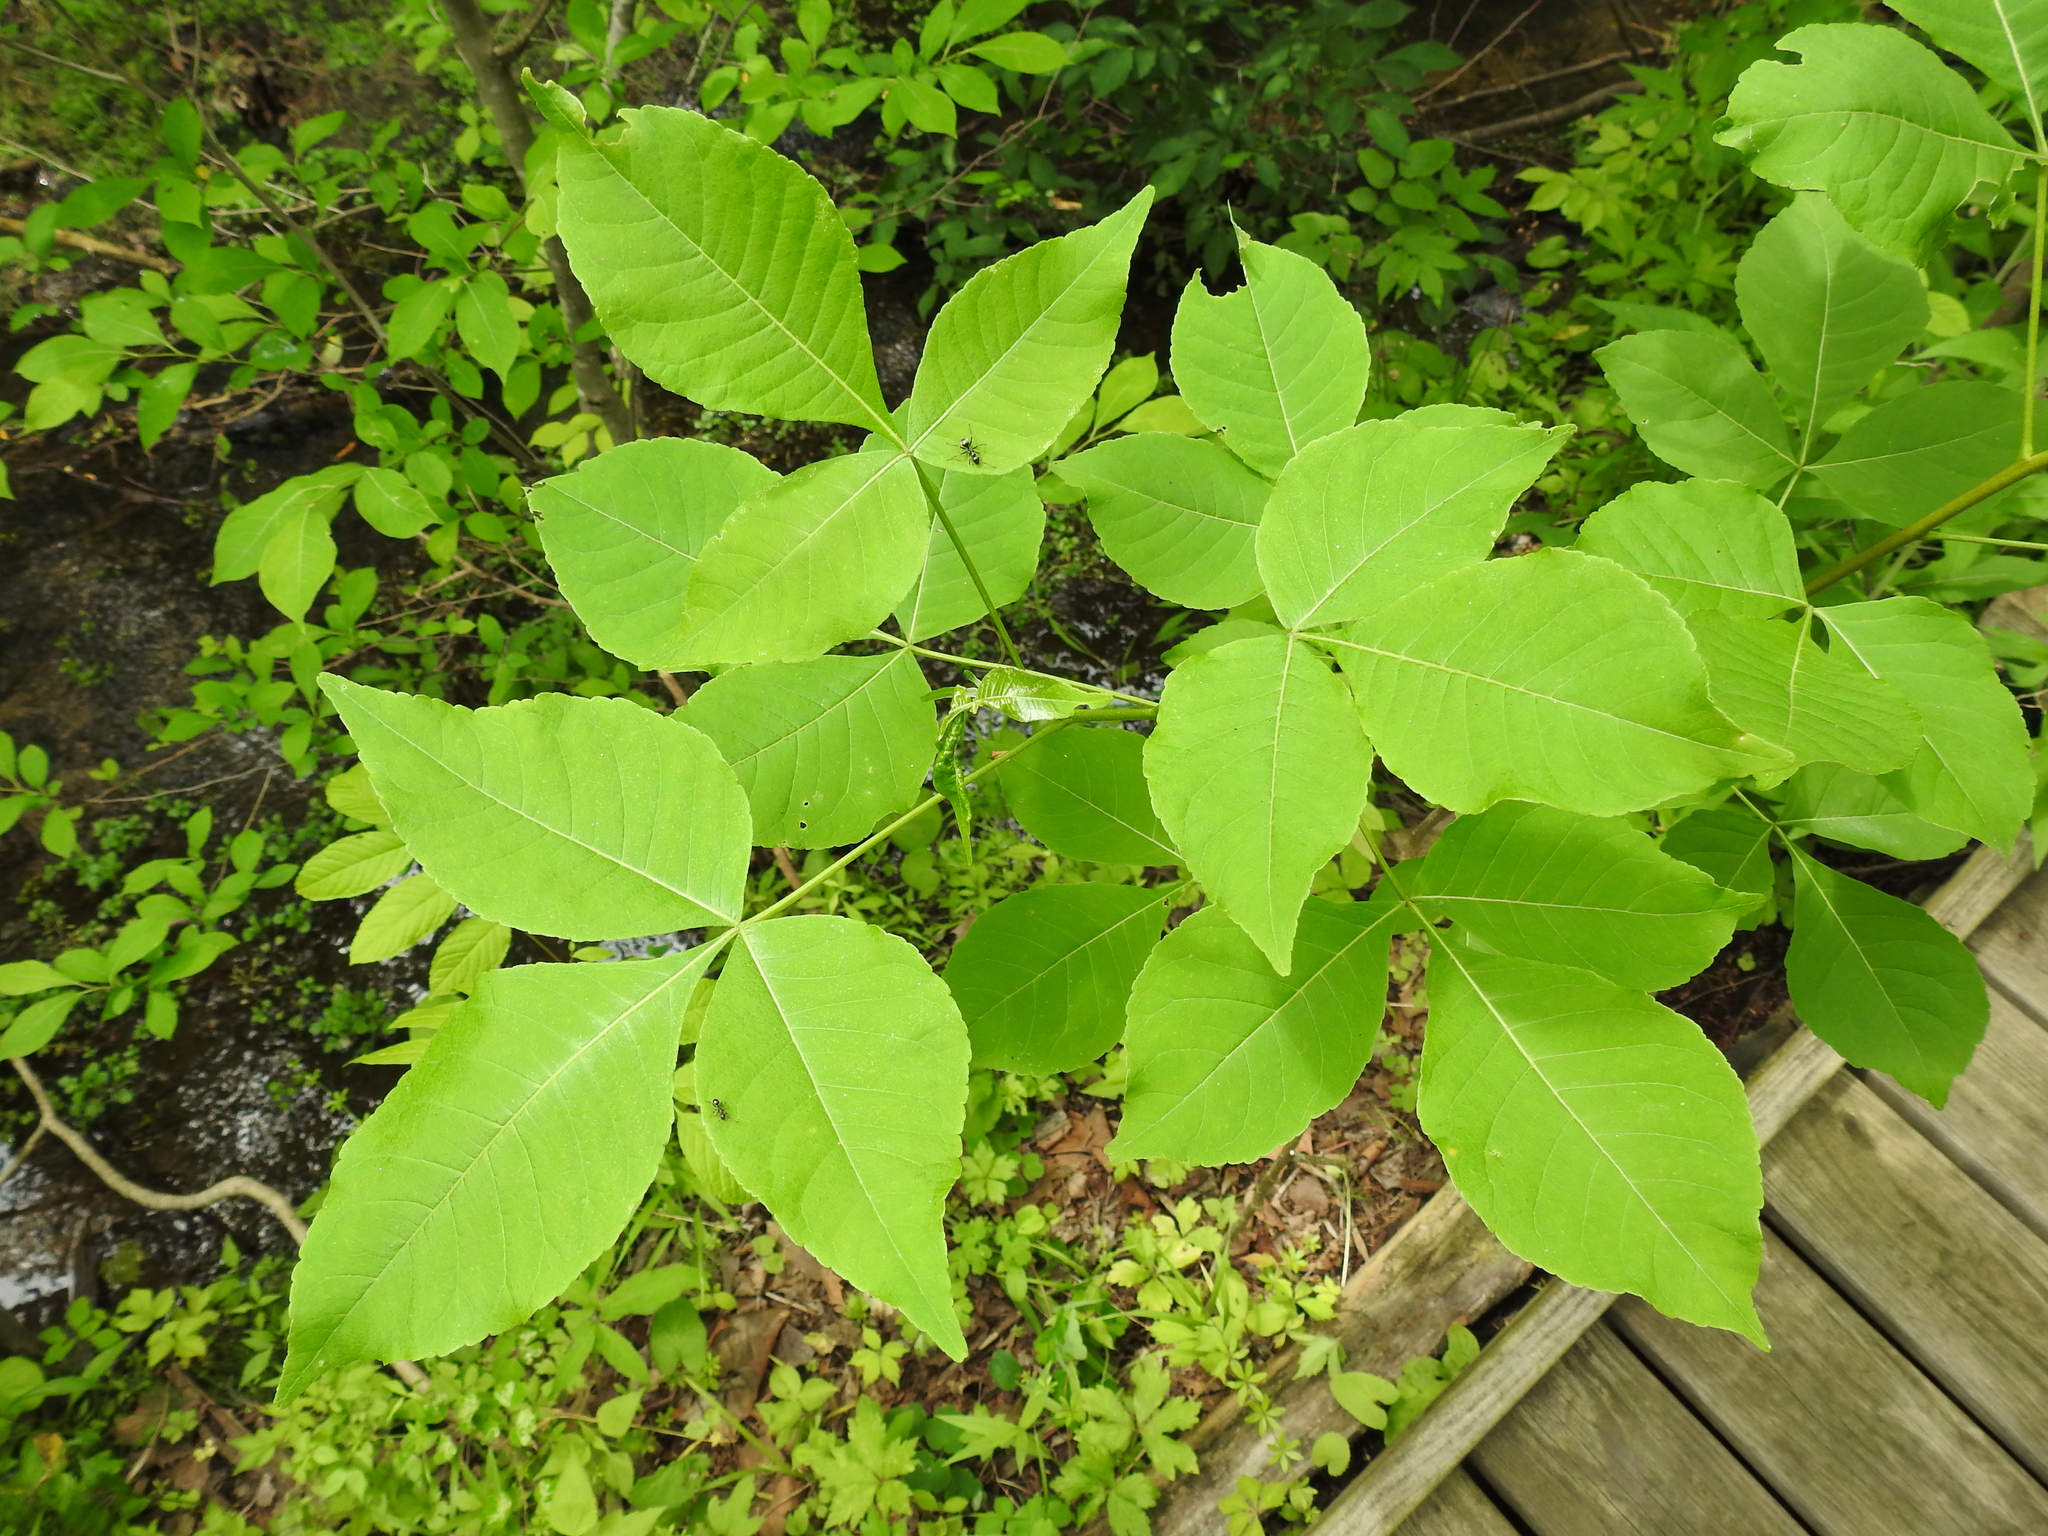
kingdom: Plantae
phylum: Tracheophyta
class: Magnoliopsida
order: Sapindales
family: Rutaceae
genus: Ptelea
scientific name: Ptelea trifoliata
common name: Common hop-tree
